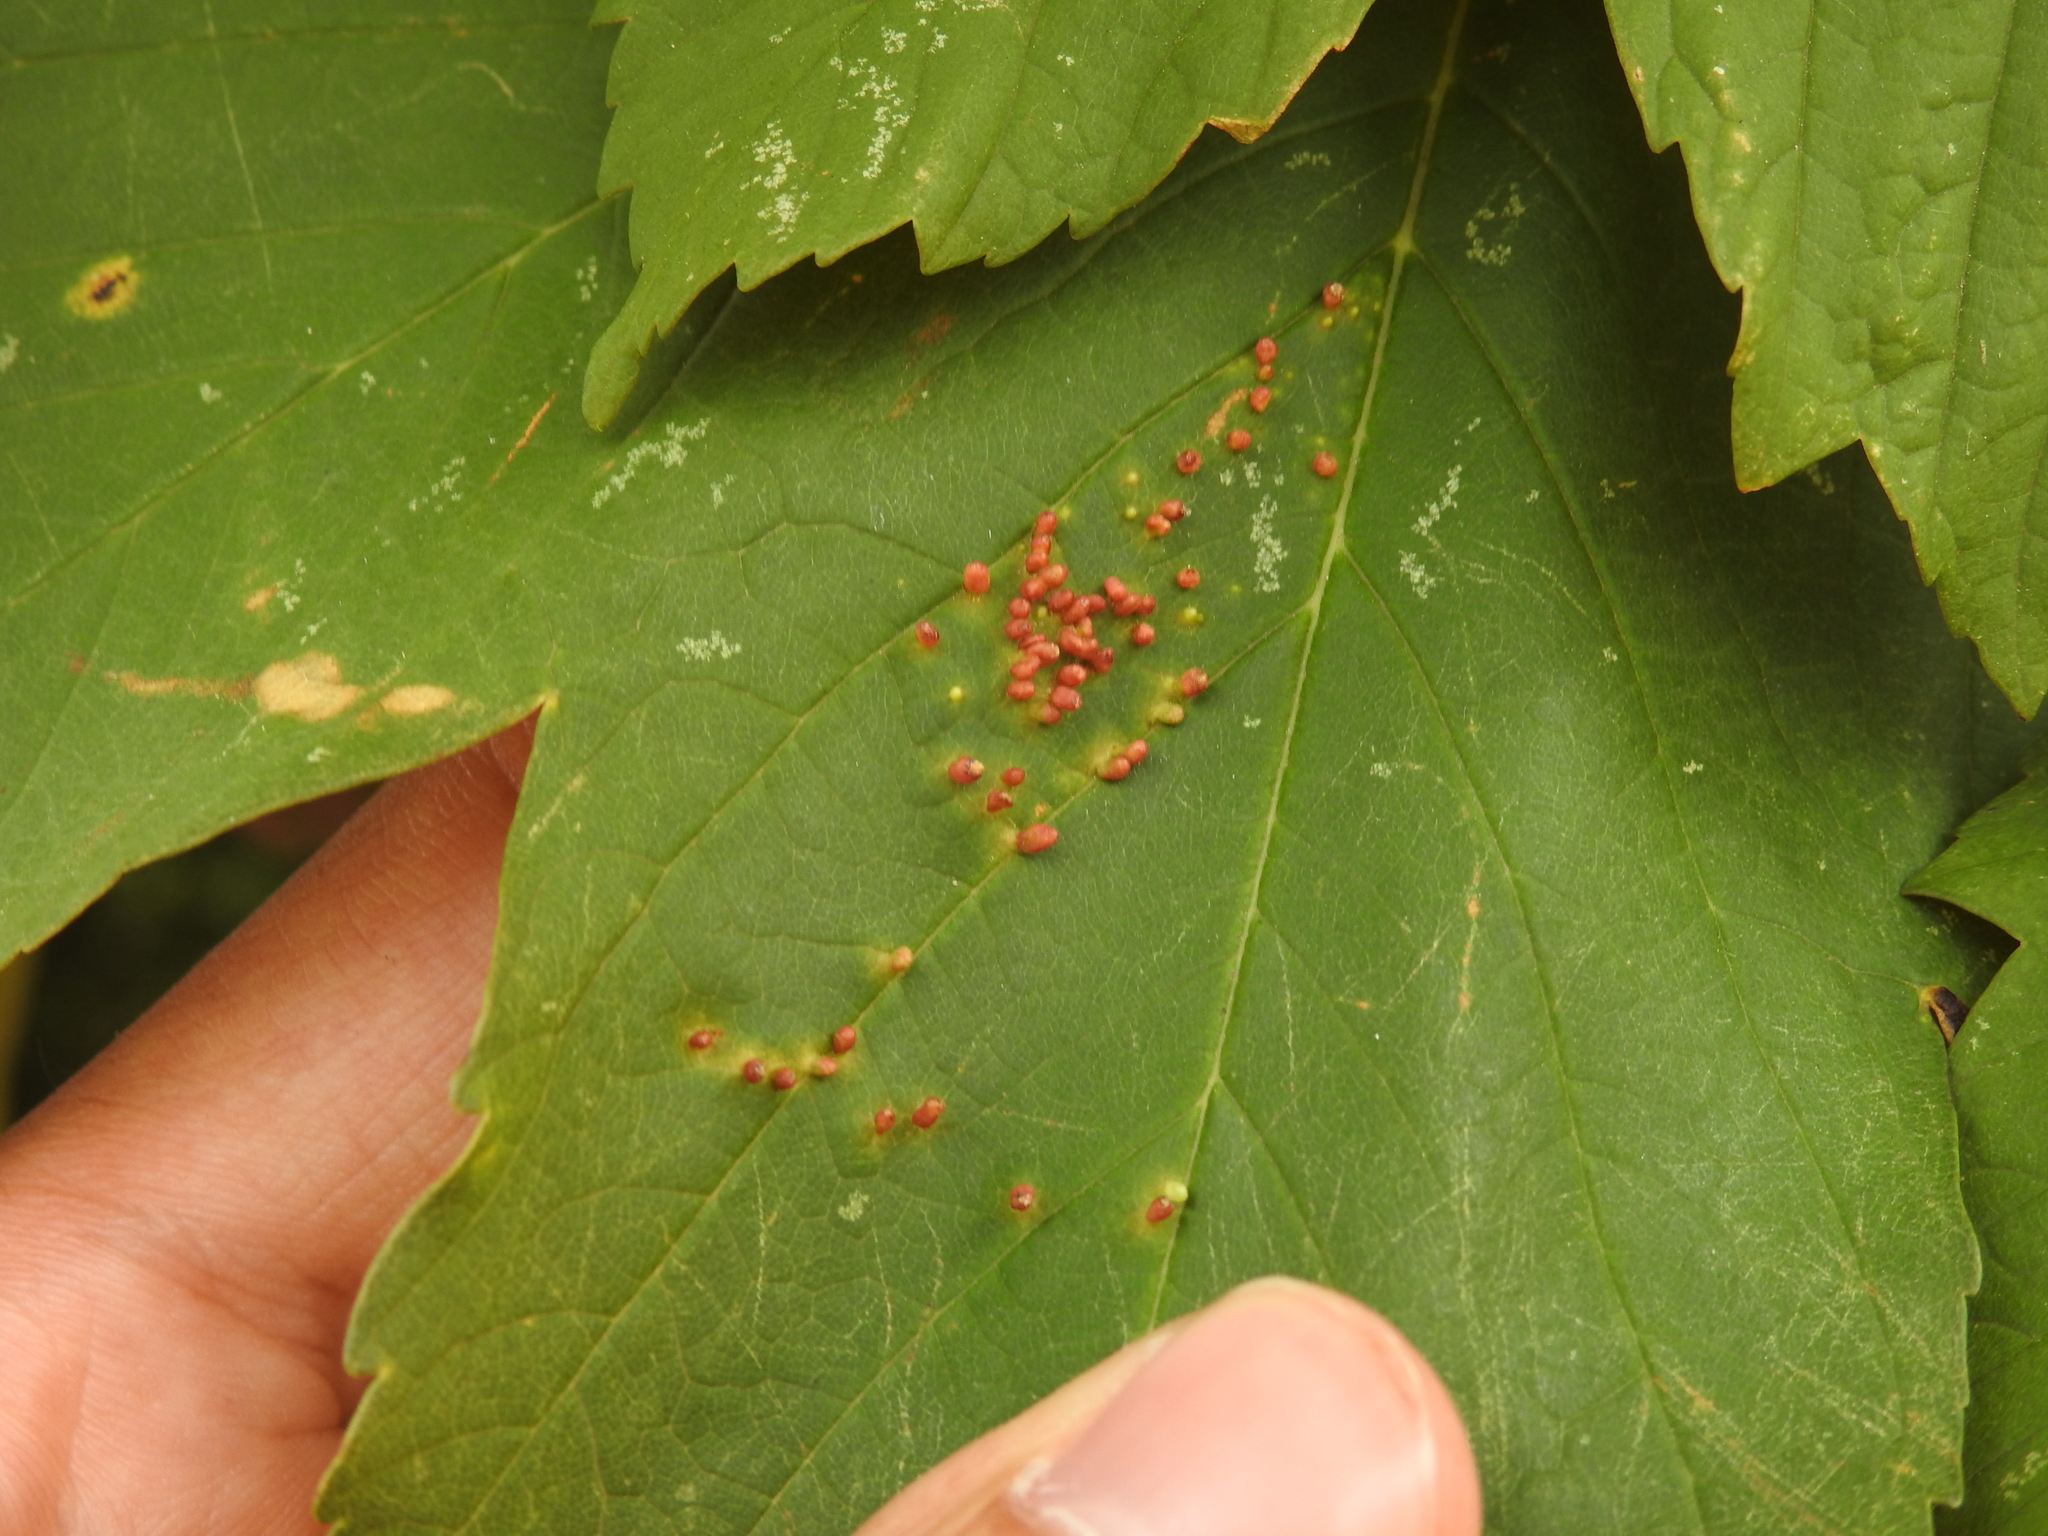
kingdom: Animalia
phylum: Arthropoda
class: Arachnida
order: Trombidiformes
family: Eriophyidae
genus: Aceria
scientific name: Aceria cephaloneus
